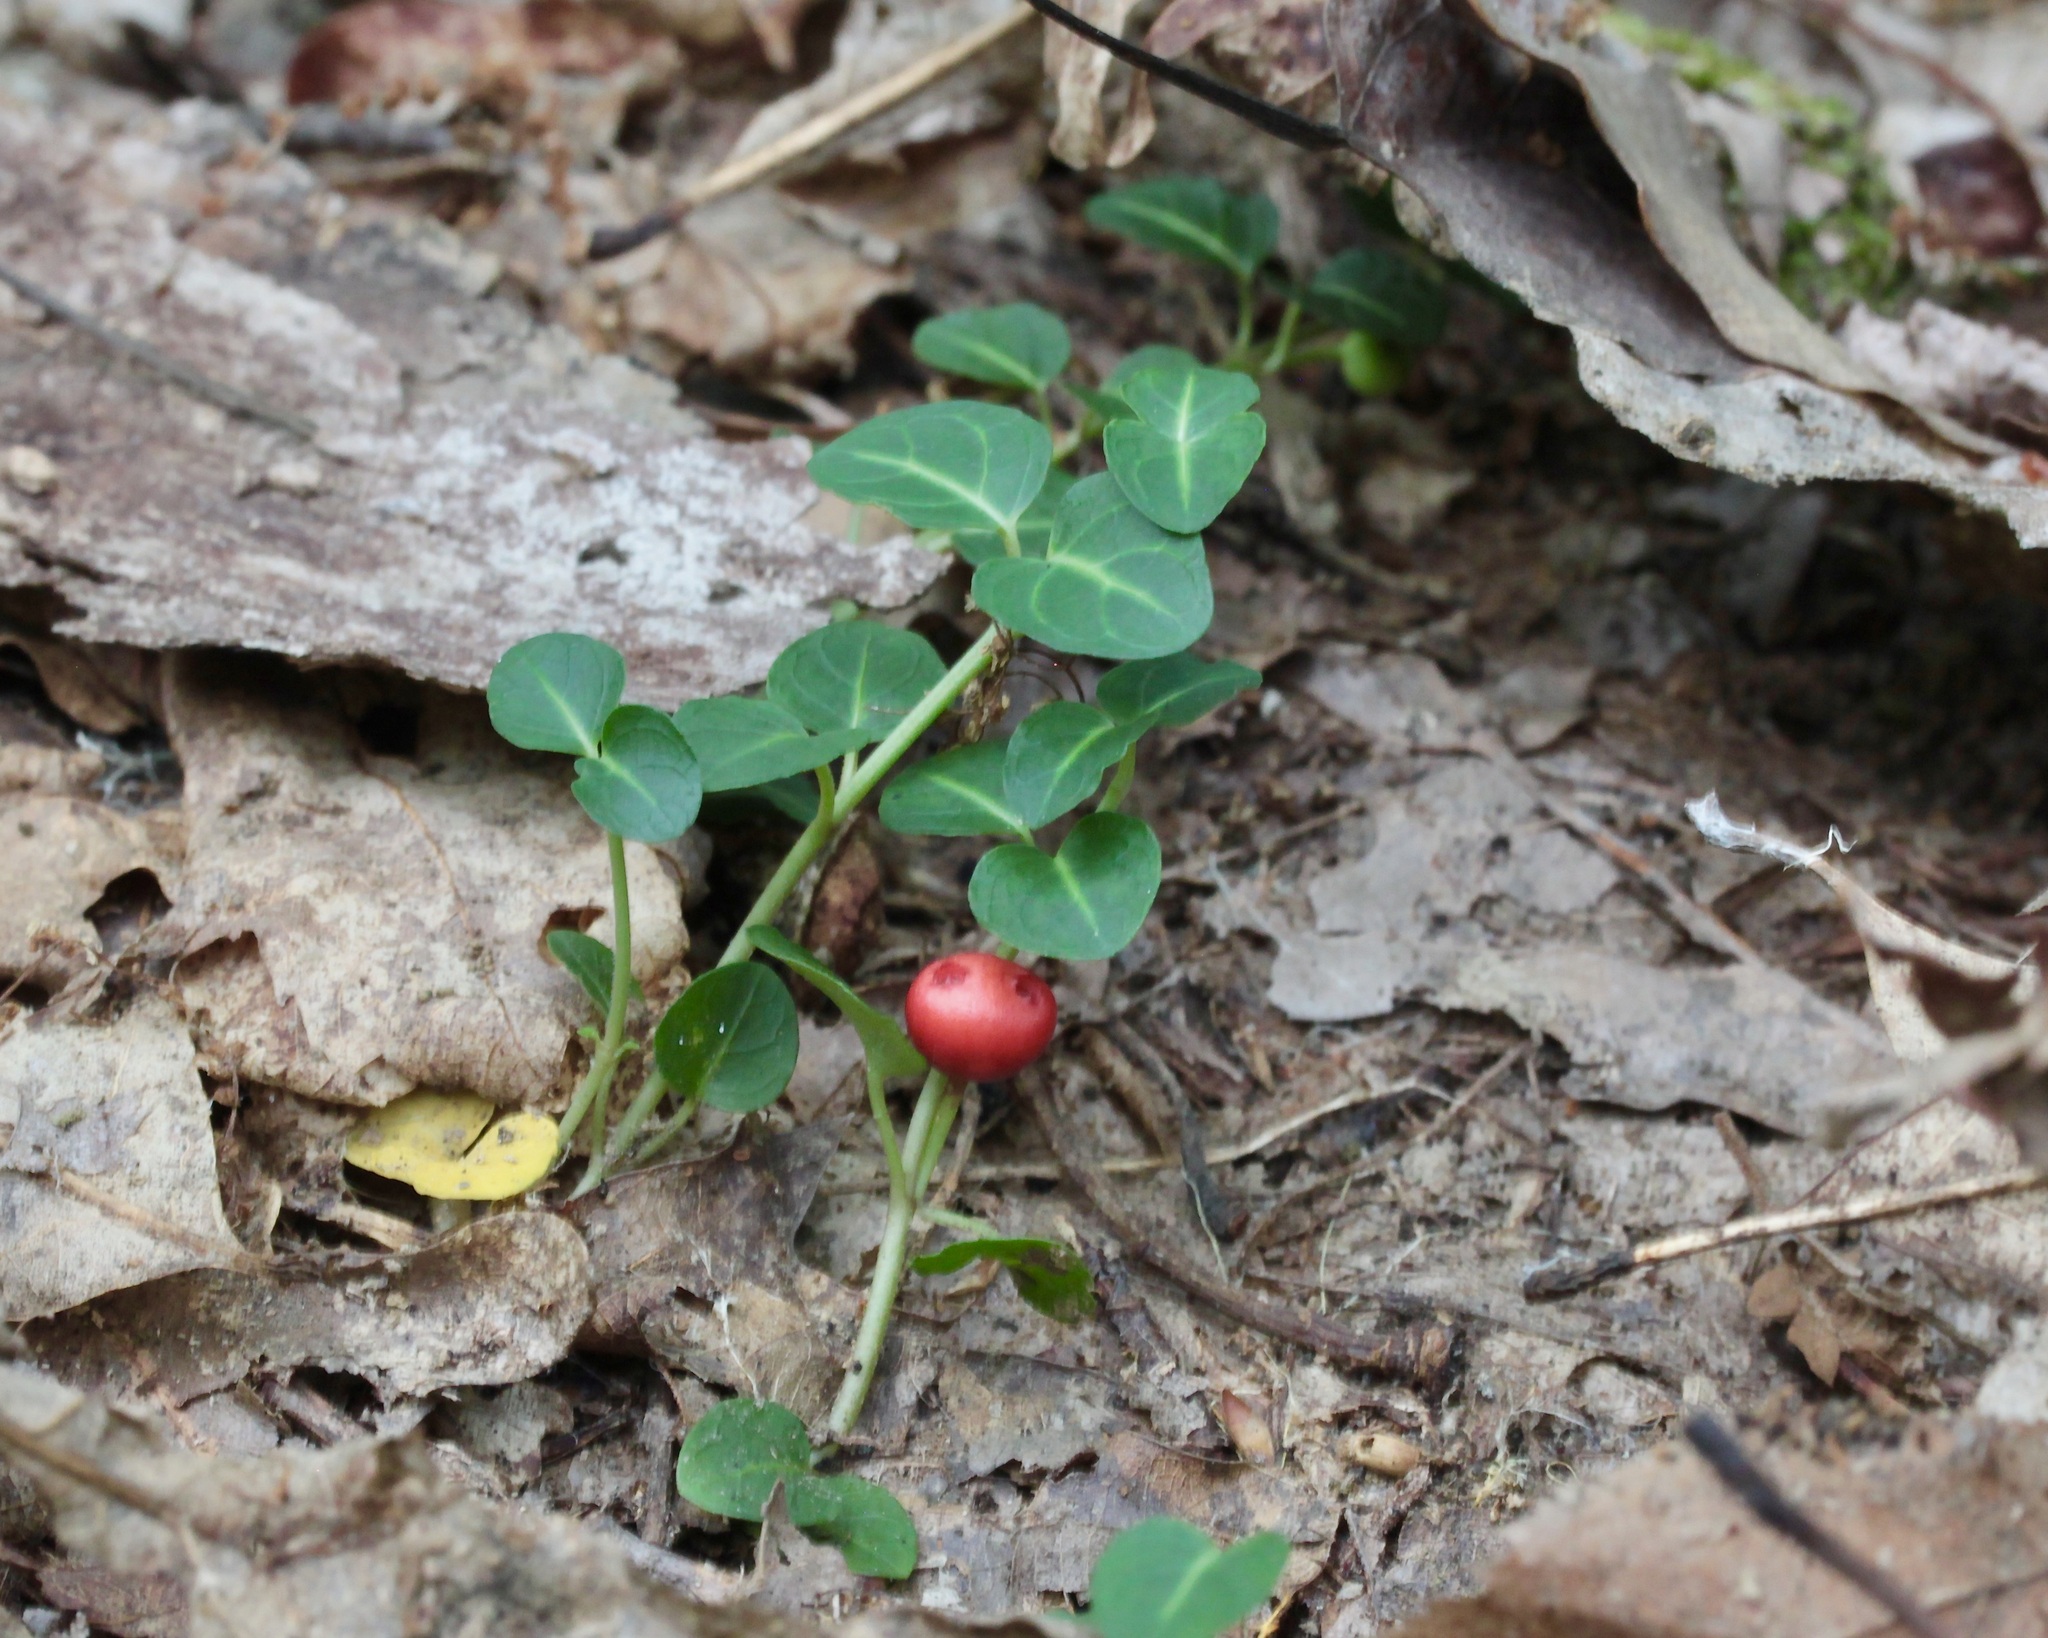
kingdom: Plantae
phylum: Tracheophyta
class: Magnoliopsida
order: Gentianales
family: Rubiaceae
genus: Mitchella
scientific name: Mitchella repens
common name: Partridge-berry
